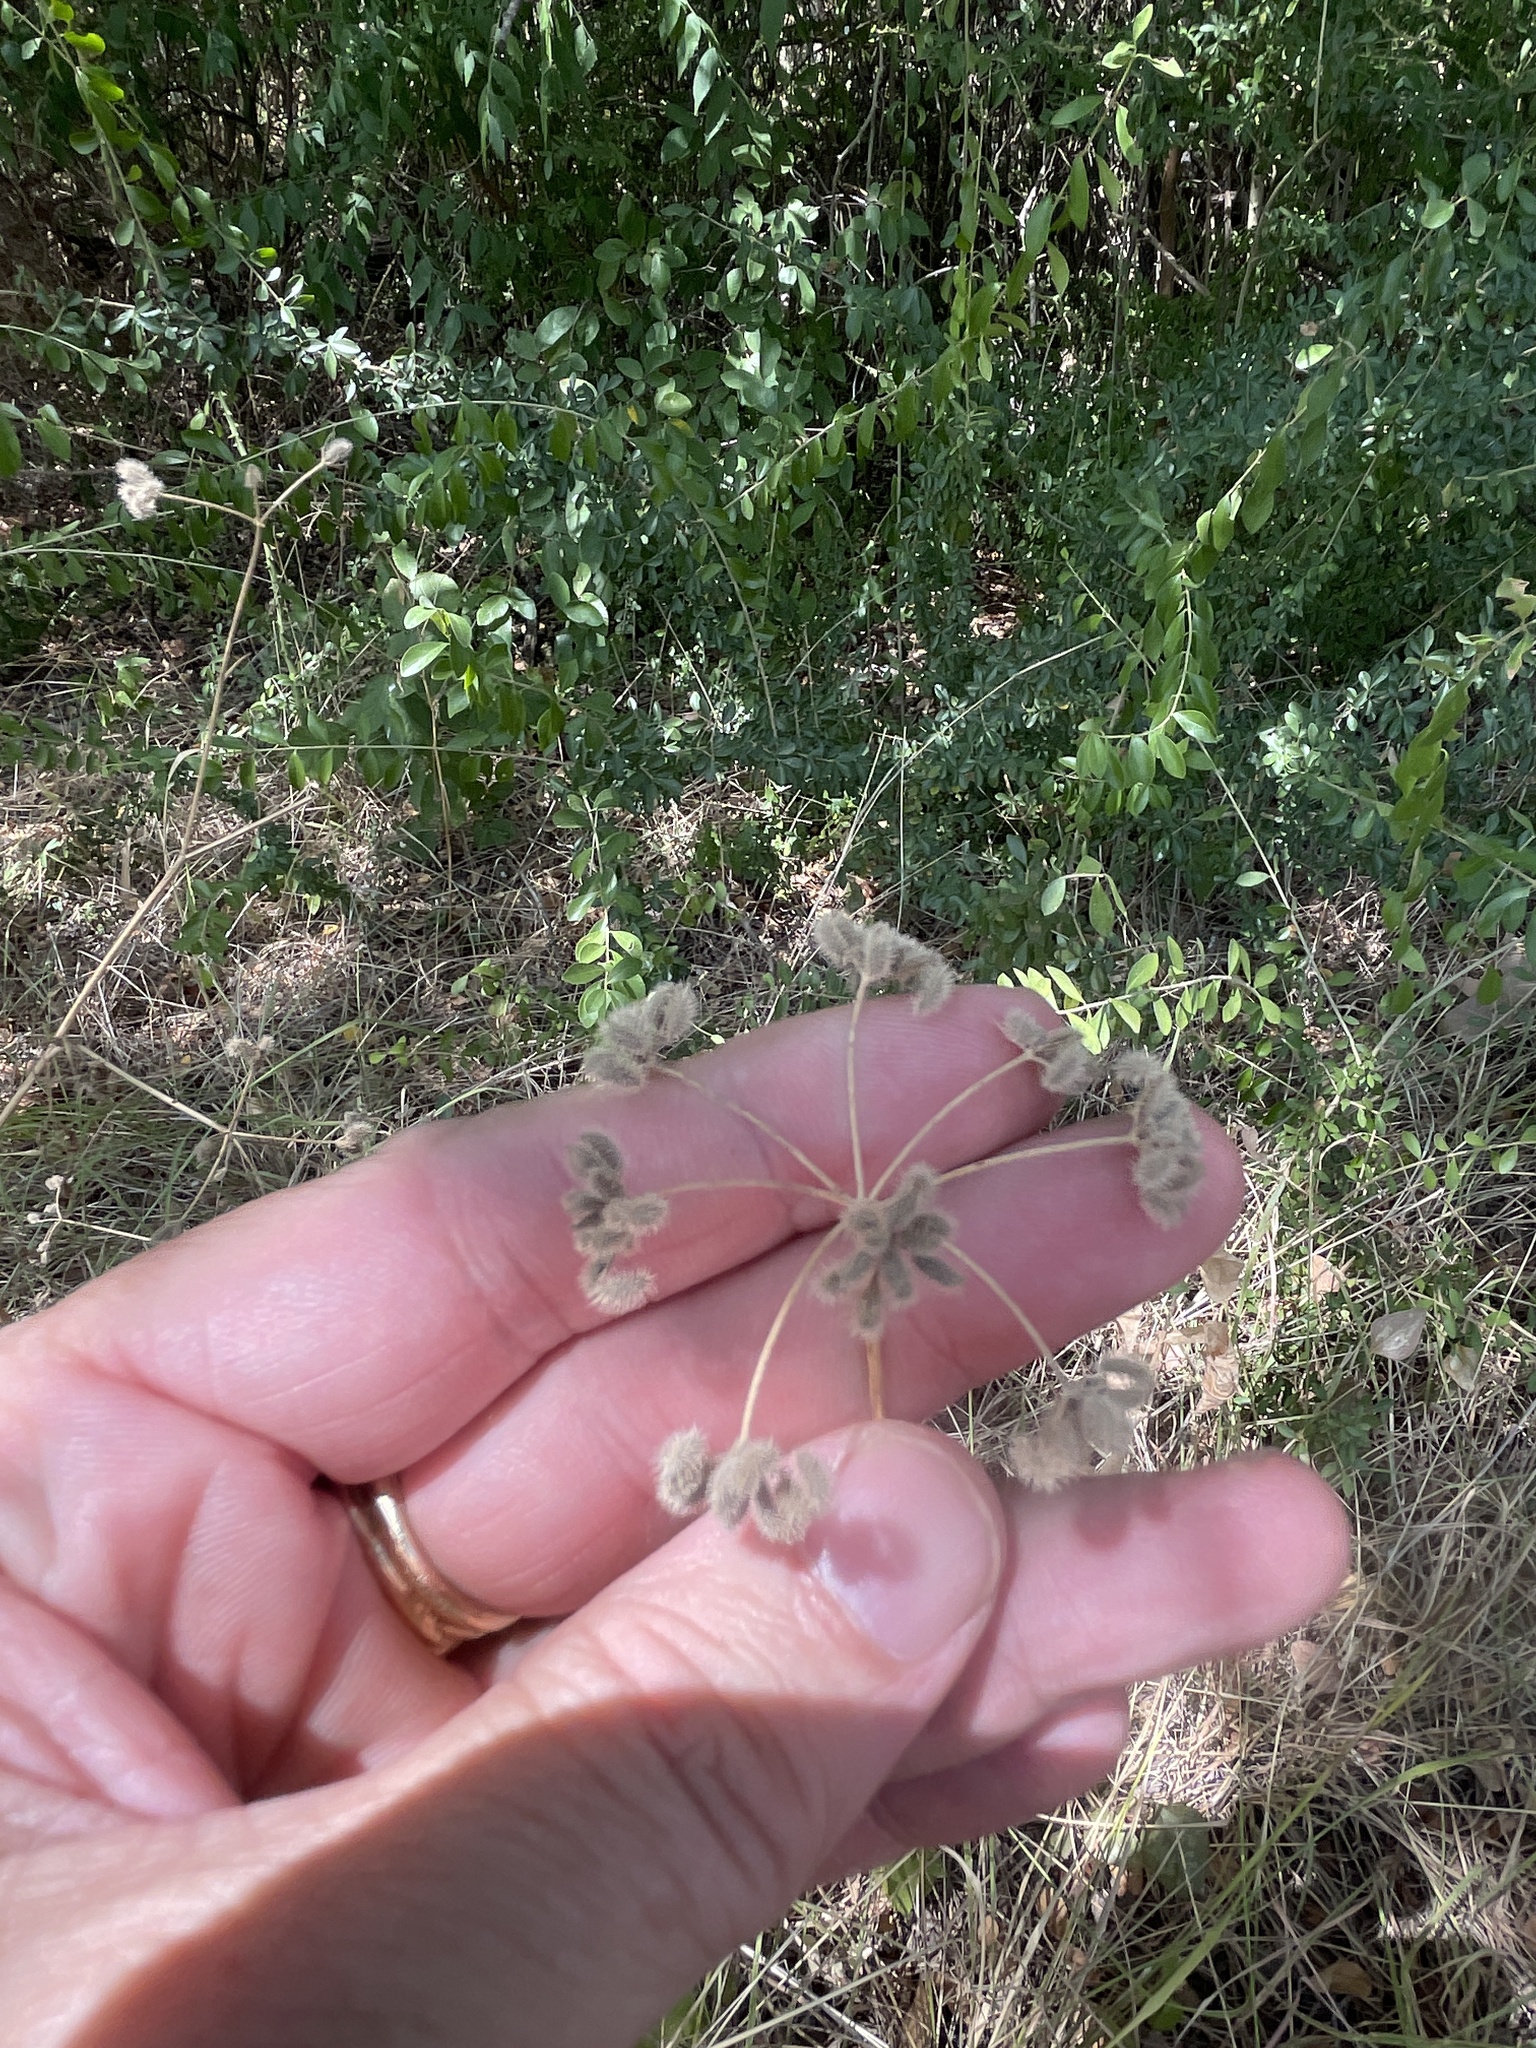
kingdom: Plantae
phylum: Tracheophyta
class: Magnoliopsida
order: Apiales
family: Apiaceae
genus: Torilis
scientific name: Torilis arvensis
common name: Spreading hedge-parsley
